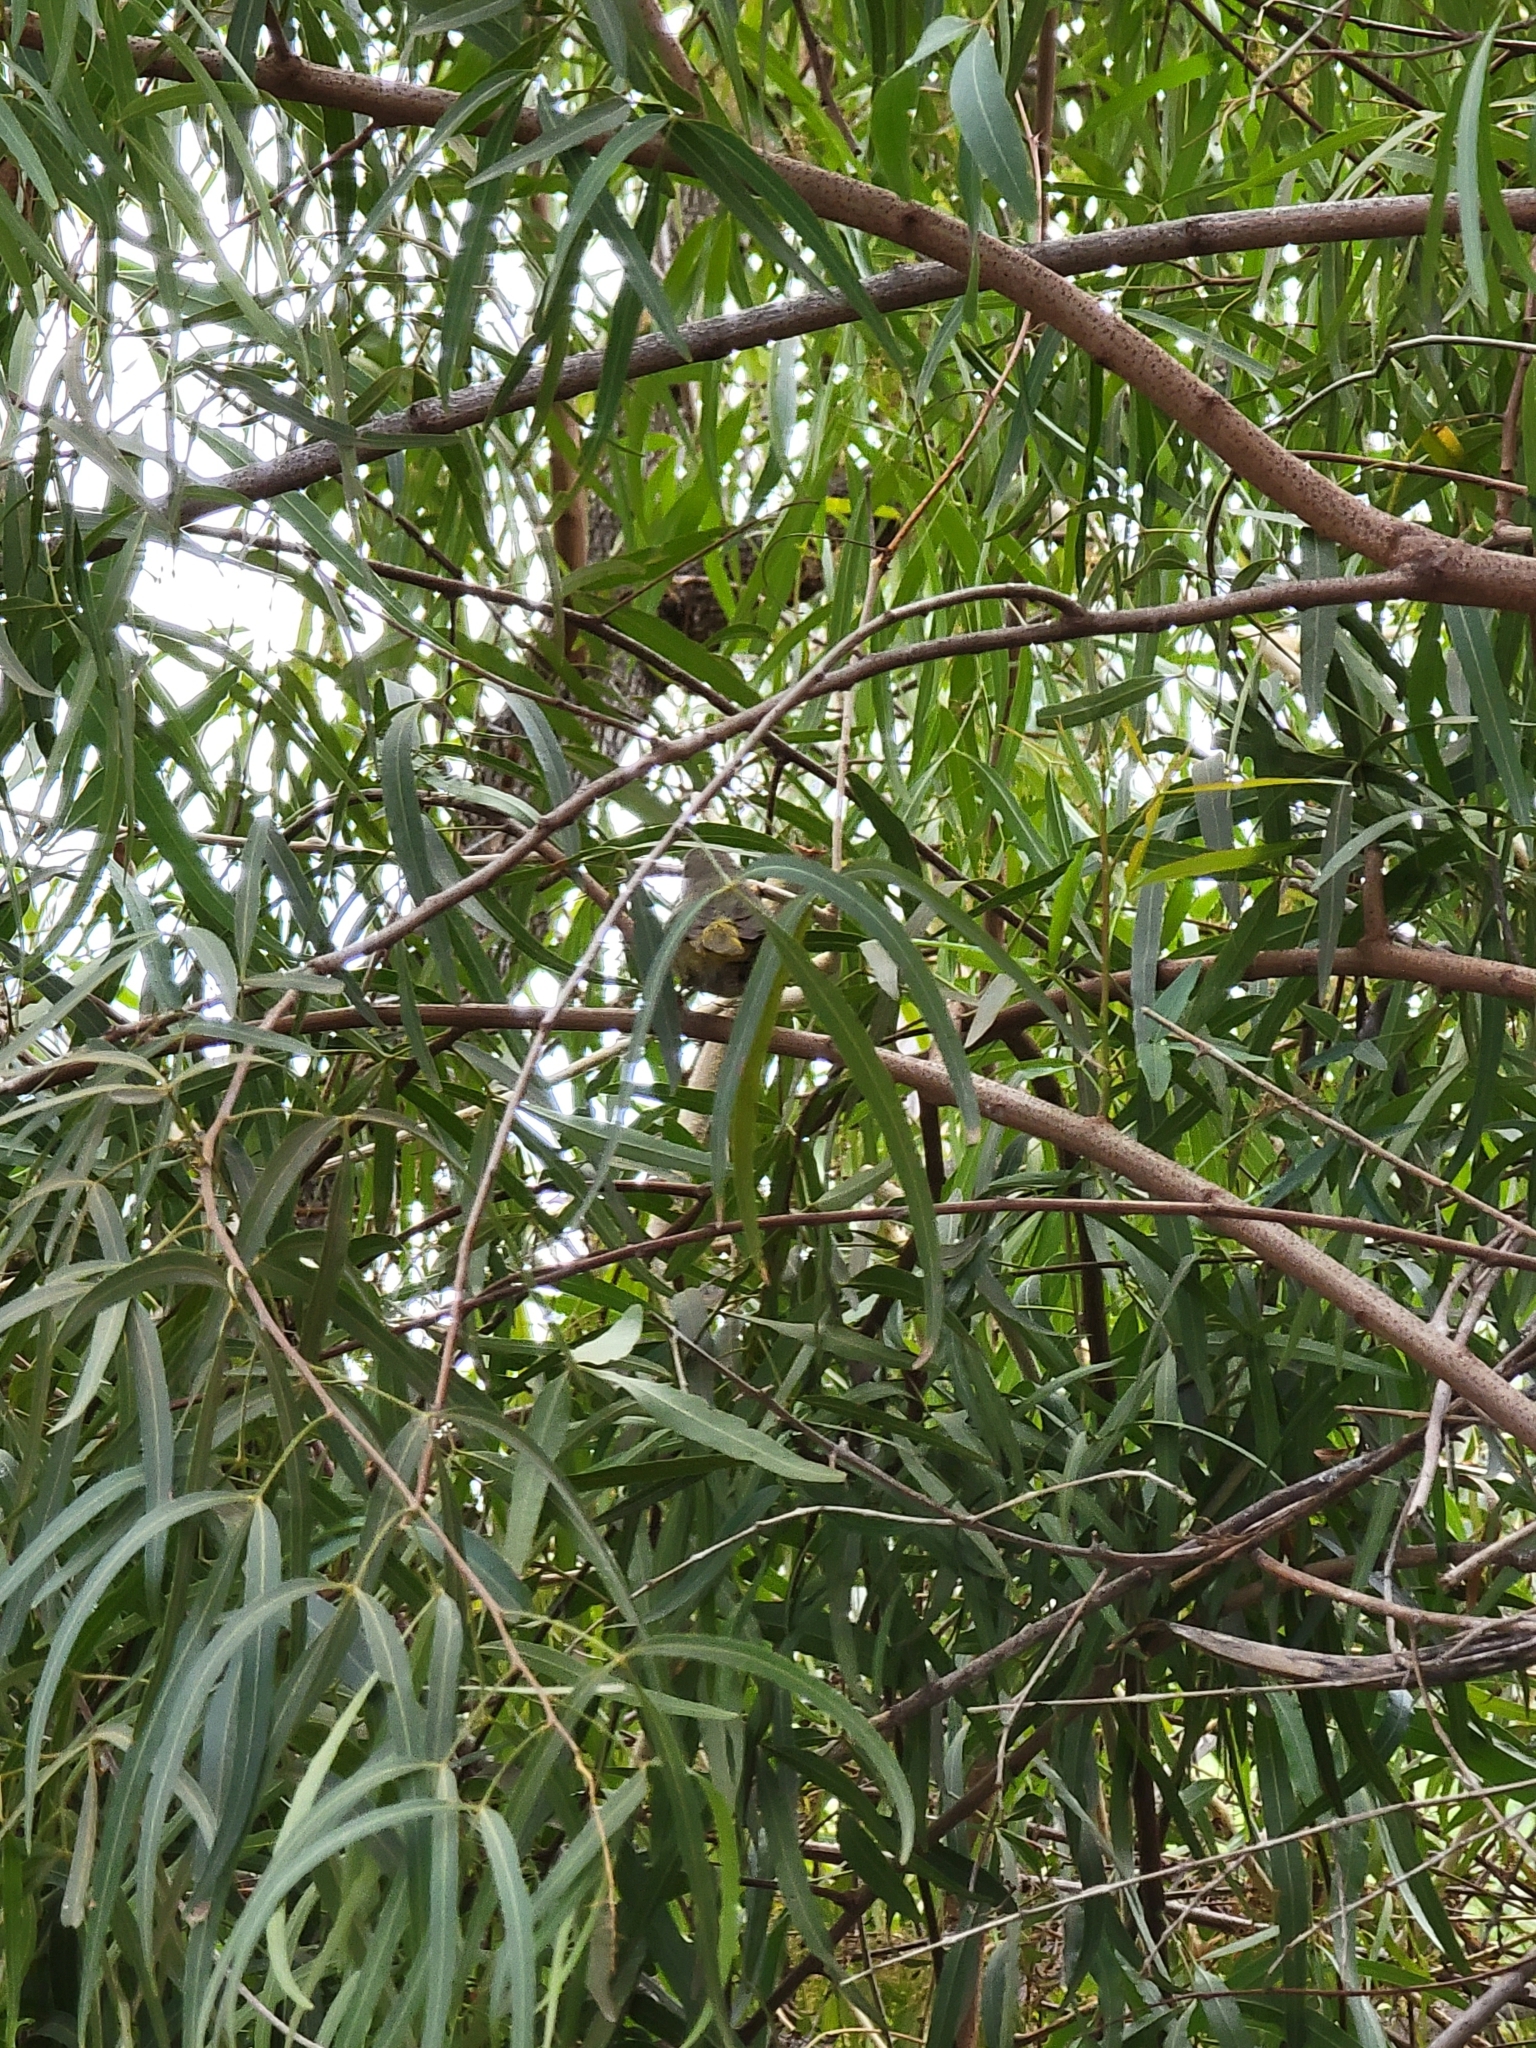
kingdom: Animalia
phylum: Chordata
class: Aves
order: Passeriformes
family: Parulidae
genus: Geothlypis
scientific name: Geothlypis trichas
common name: Common yellowthroat
